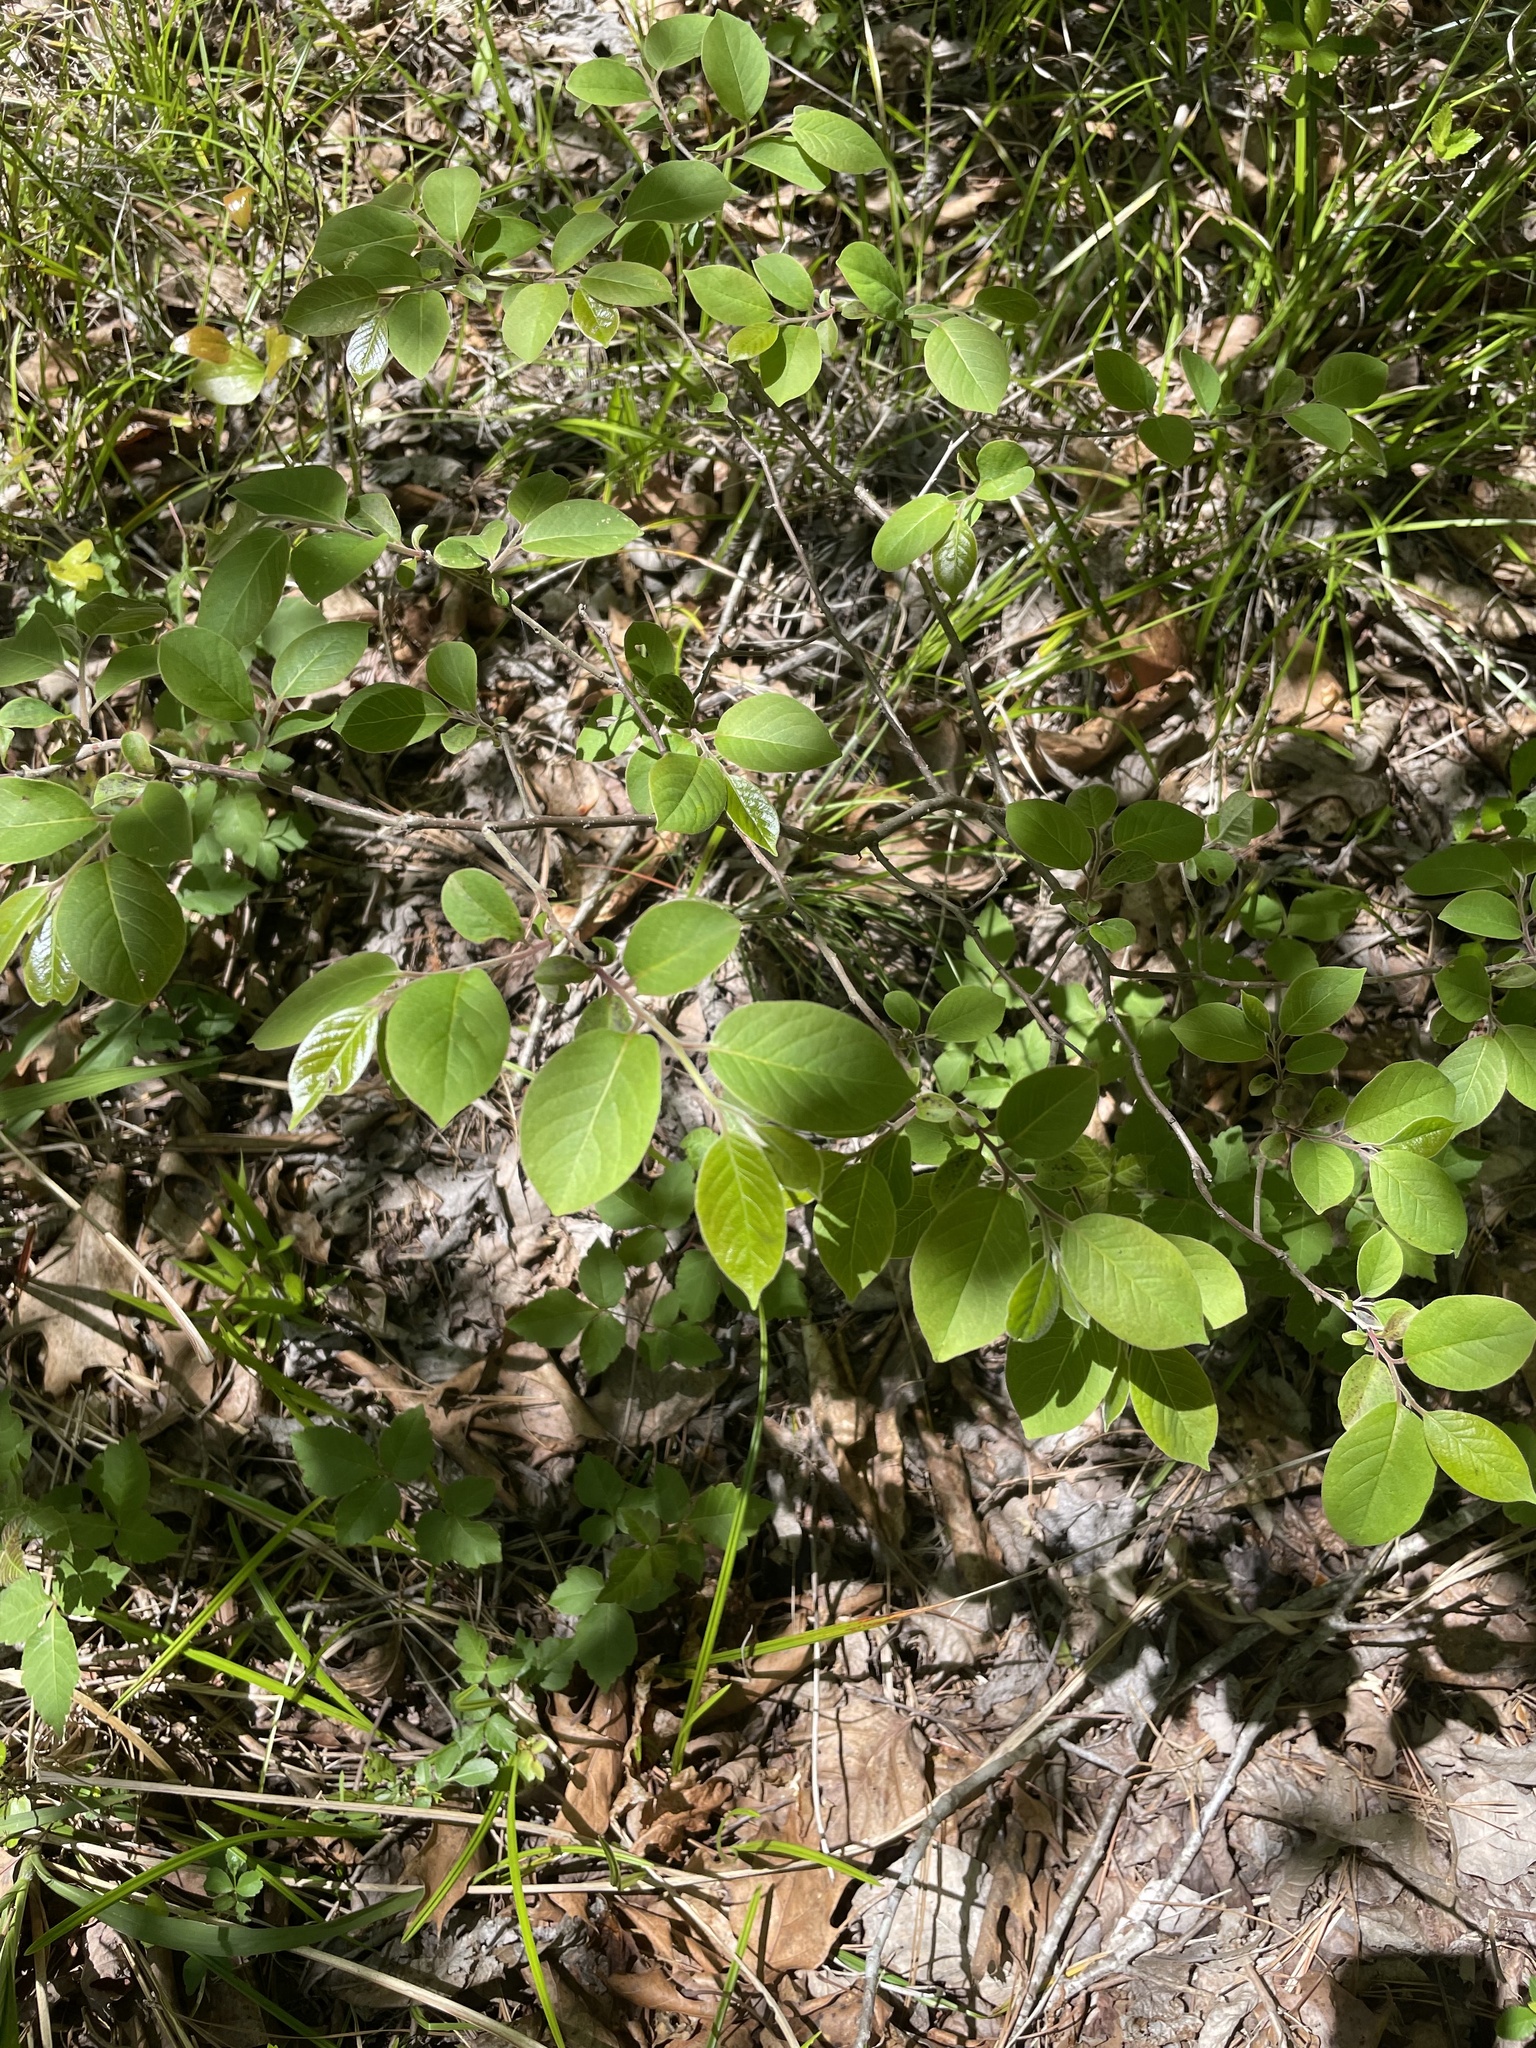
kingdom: Plantae
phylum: Tracheophyta
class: Magnoliopsida
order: Ericales
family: Ebenaceae
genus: Diospyros
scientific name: Diospyros virginiana
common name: Persimmon
